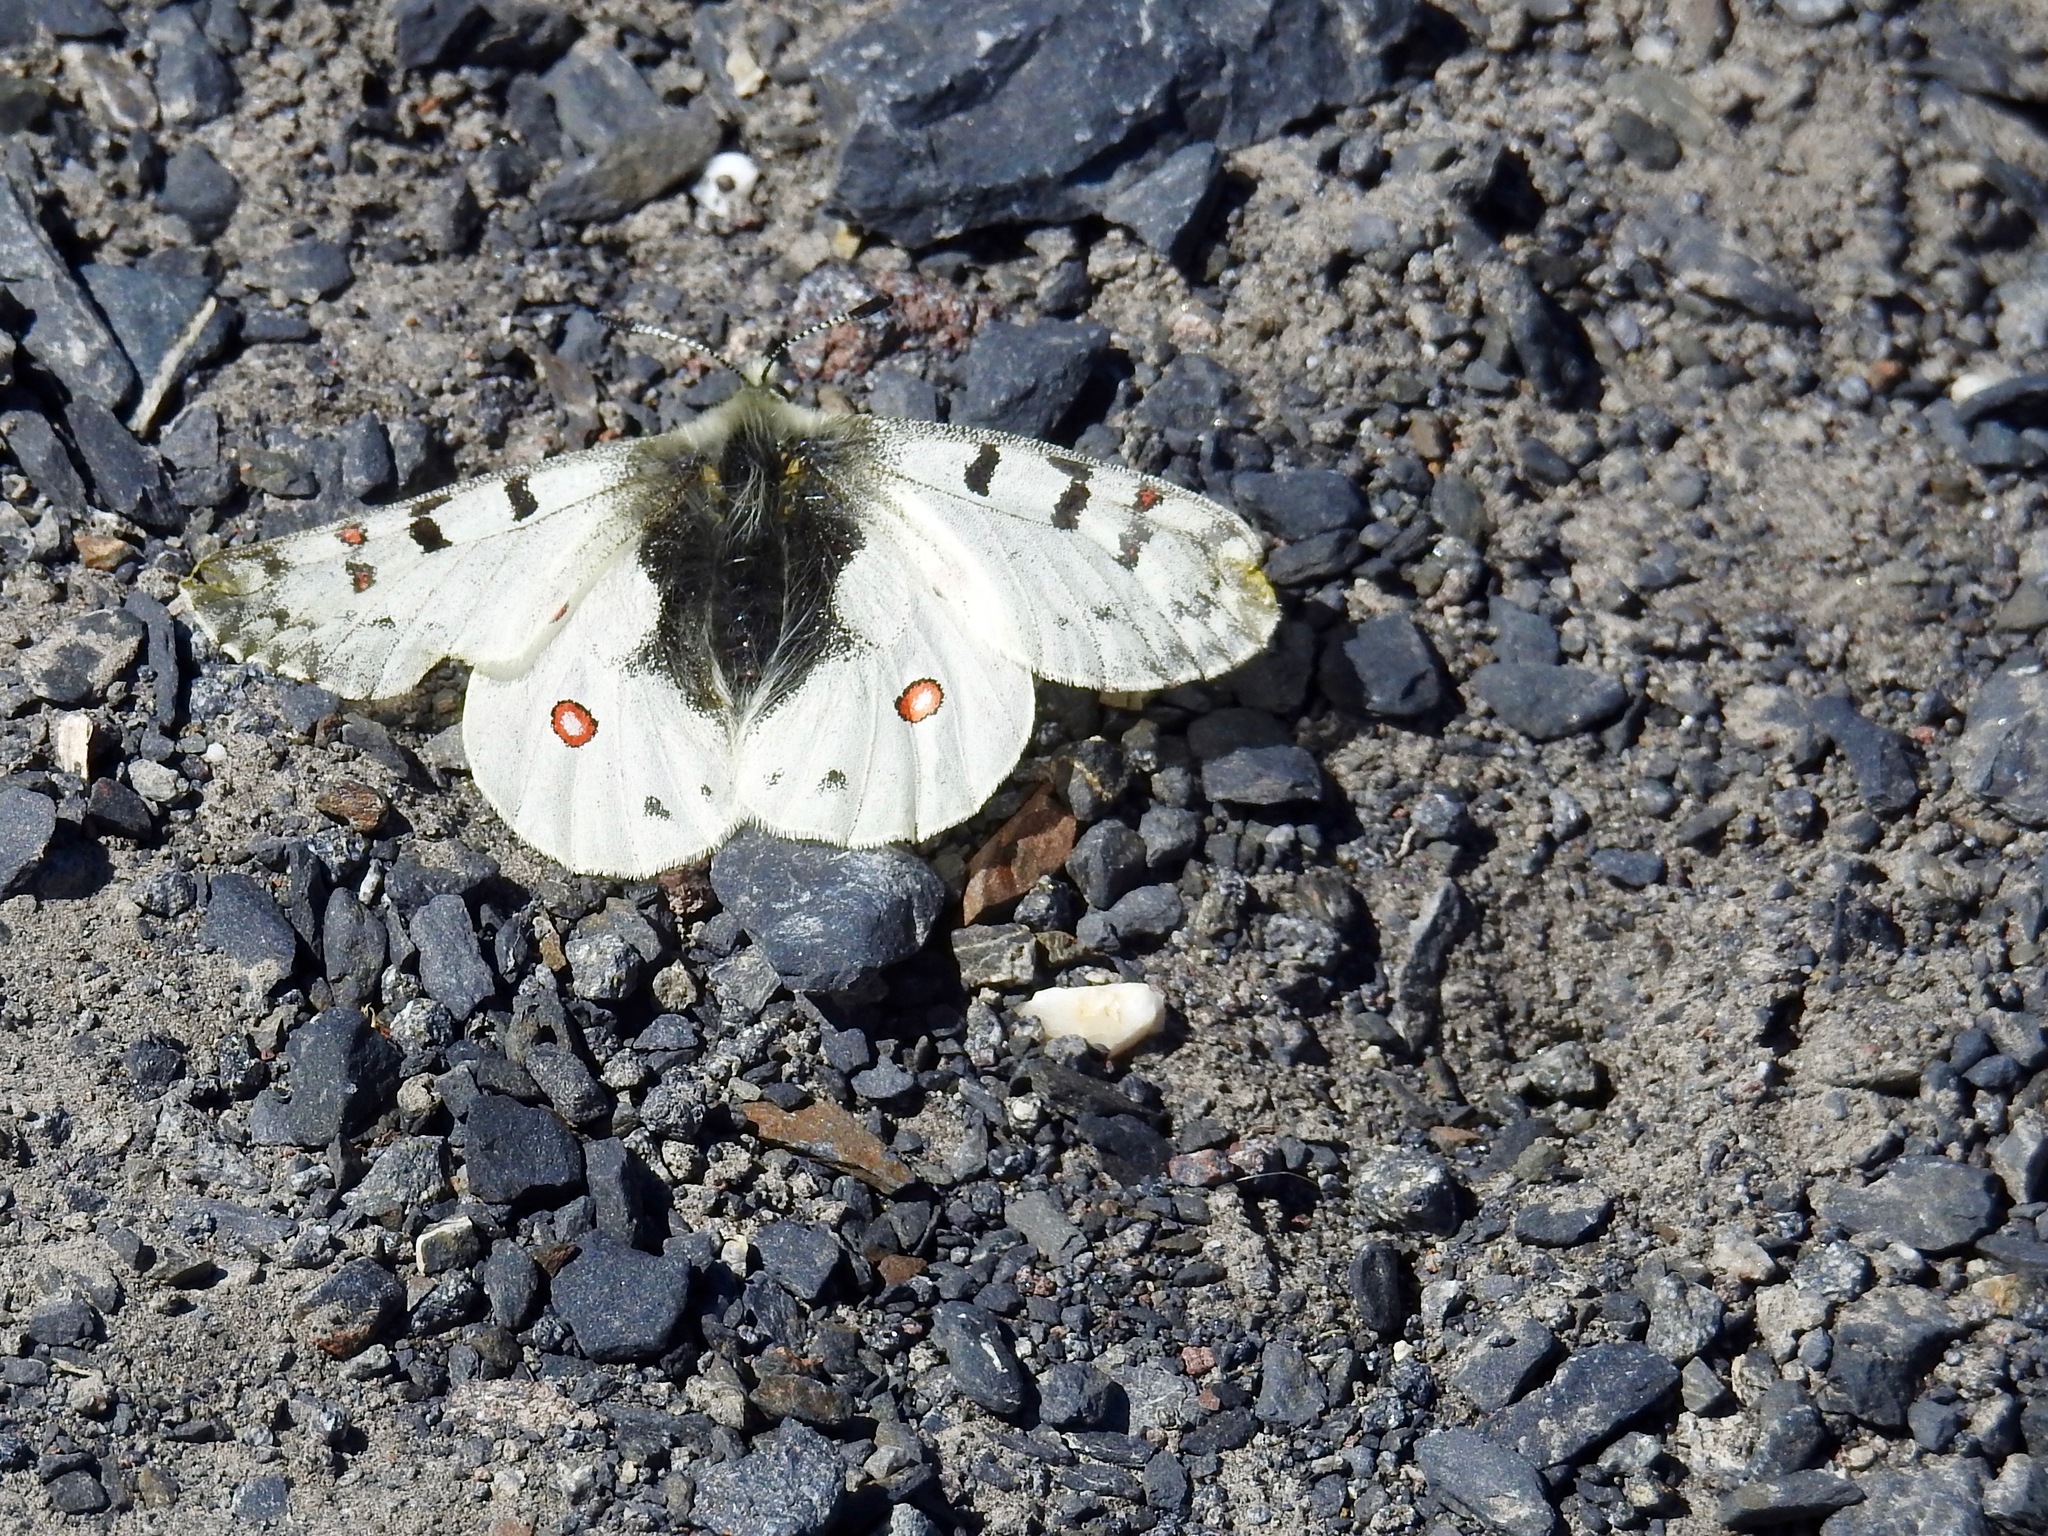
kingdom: Animalia
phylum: Arthropoda
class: Insecta
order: Lepidoptera
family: Papilionidae
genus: Parnassius
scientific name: Parnassius smintheus
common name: Mountain parnassian
